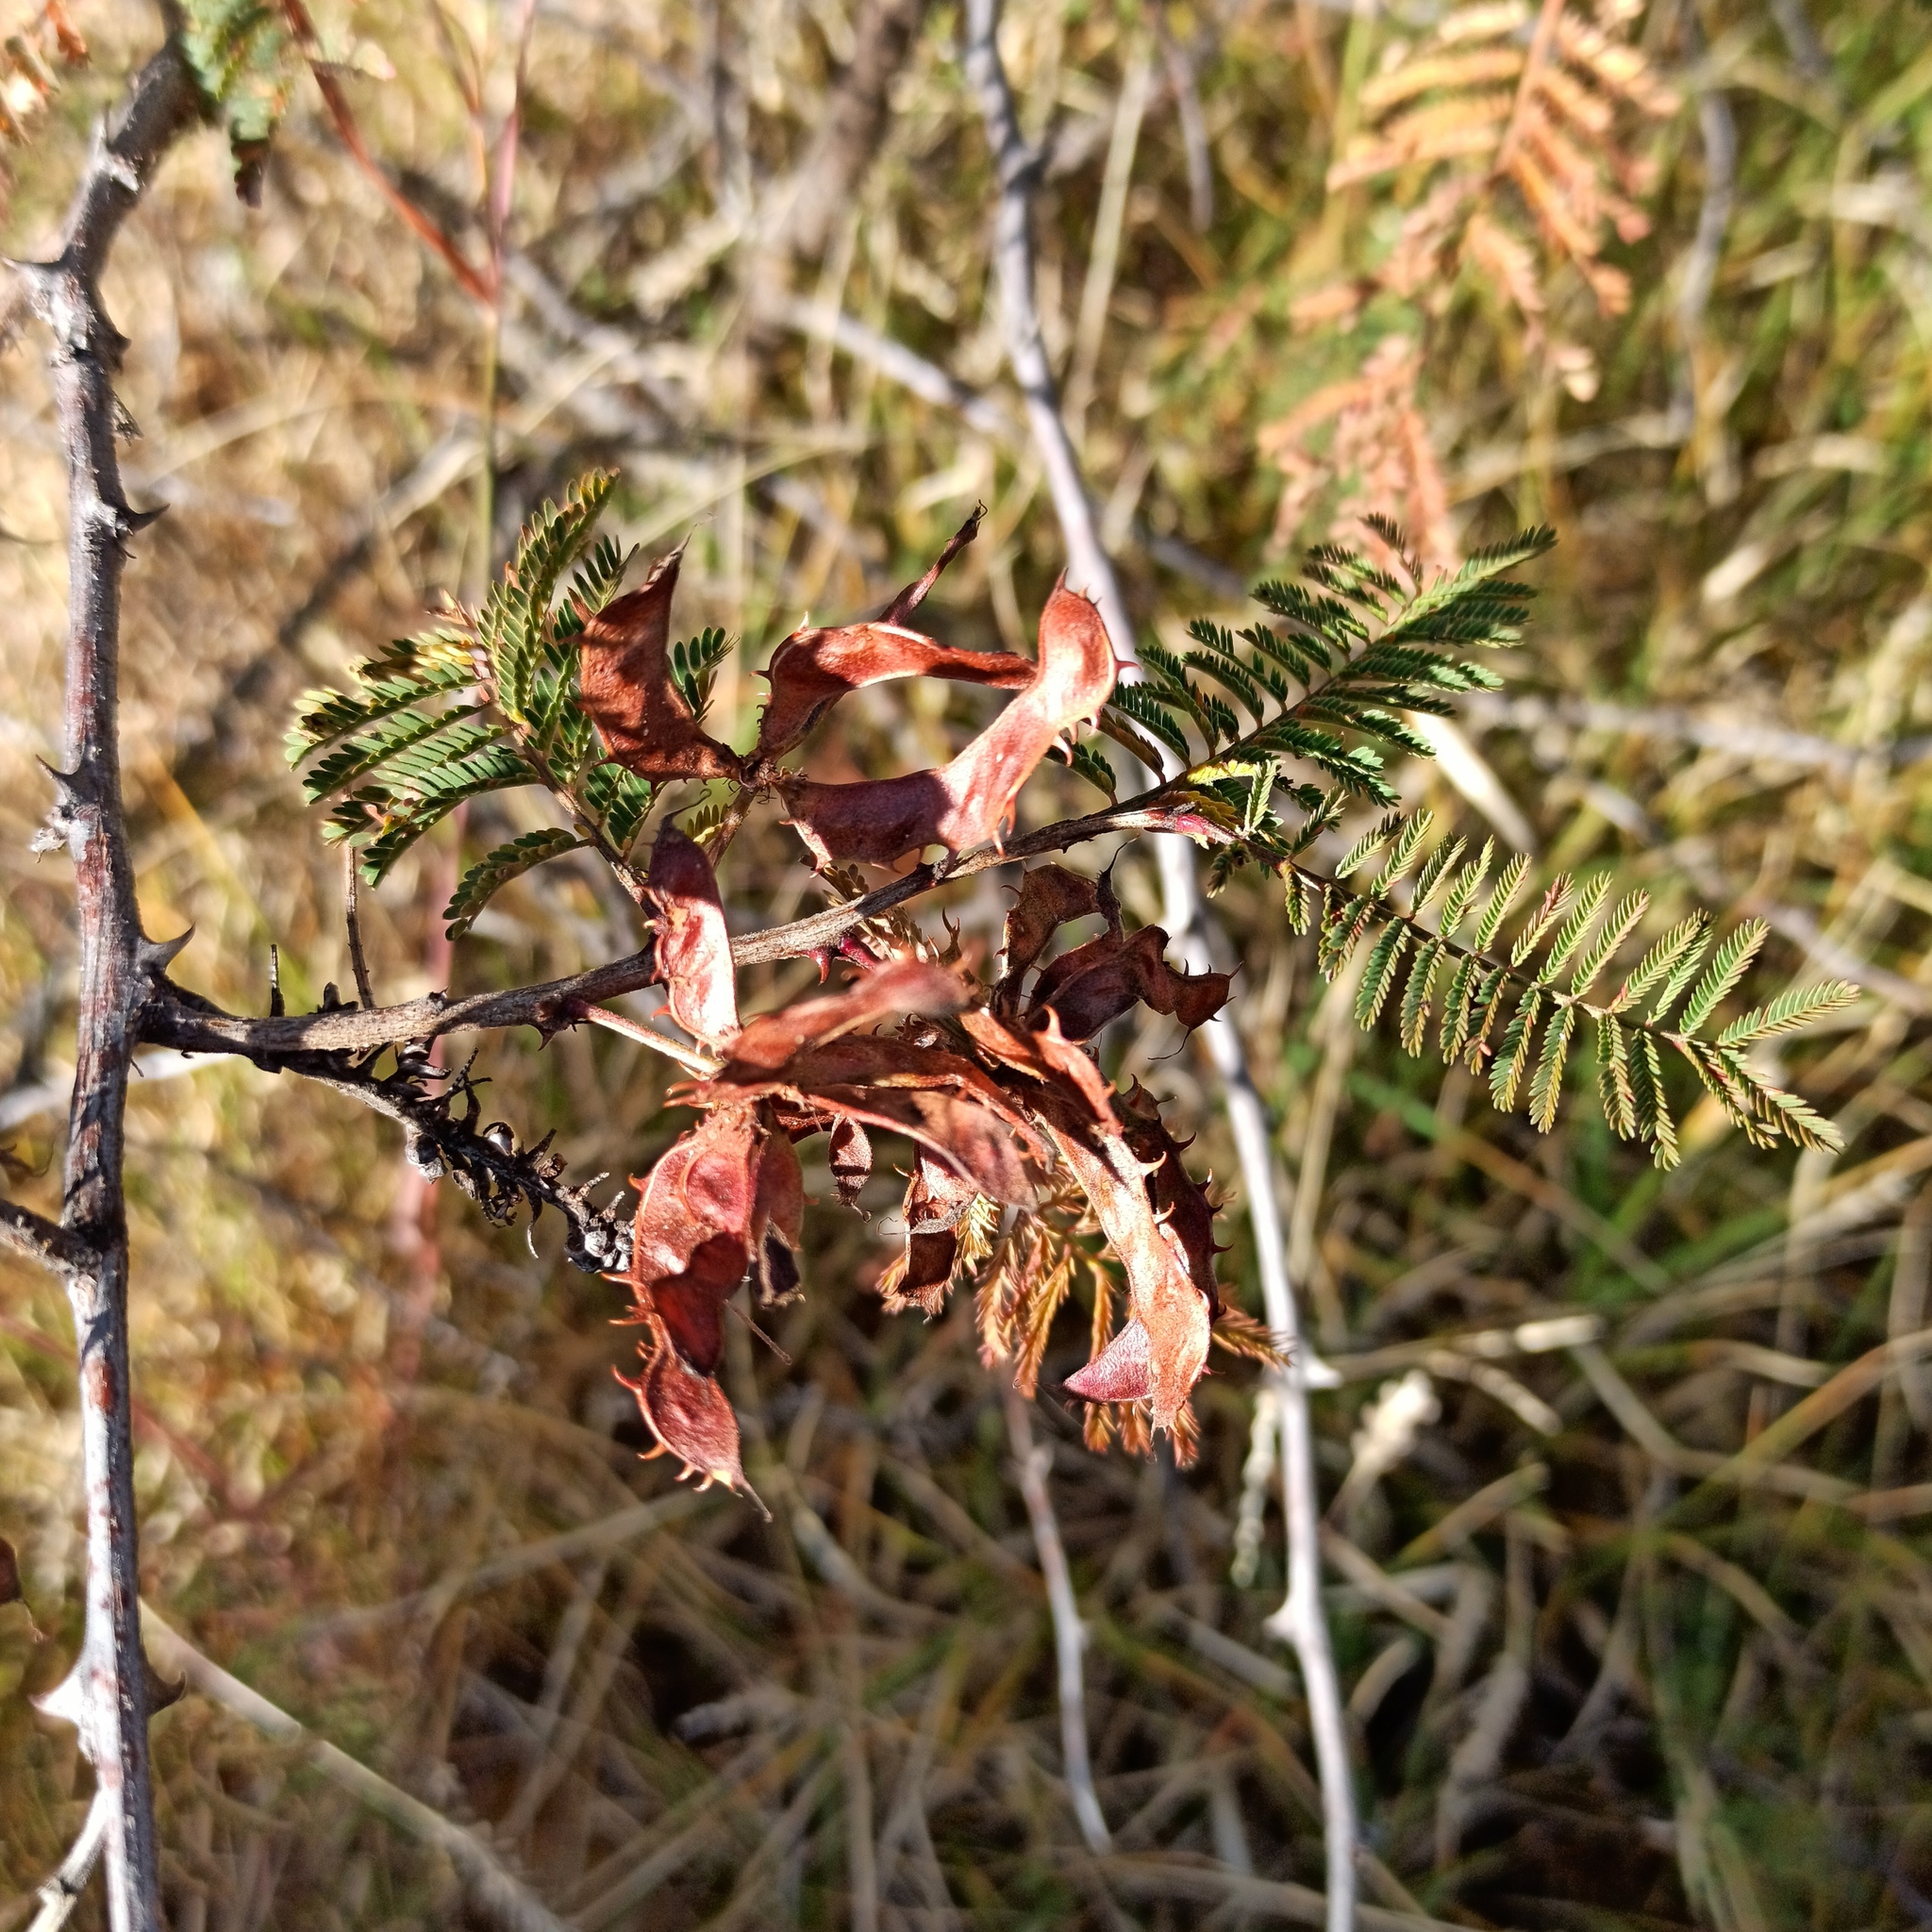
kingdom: Plantae
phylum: Tracheophyta
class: Magnoliopsida
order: Fabales
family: Fabaceae
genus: Mimosa
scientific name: Mimosa aculeaticarpa
